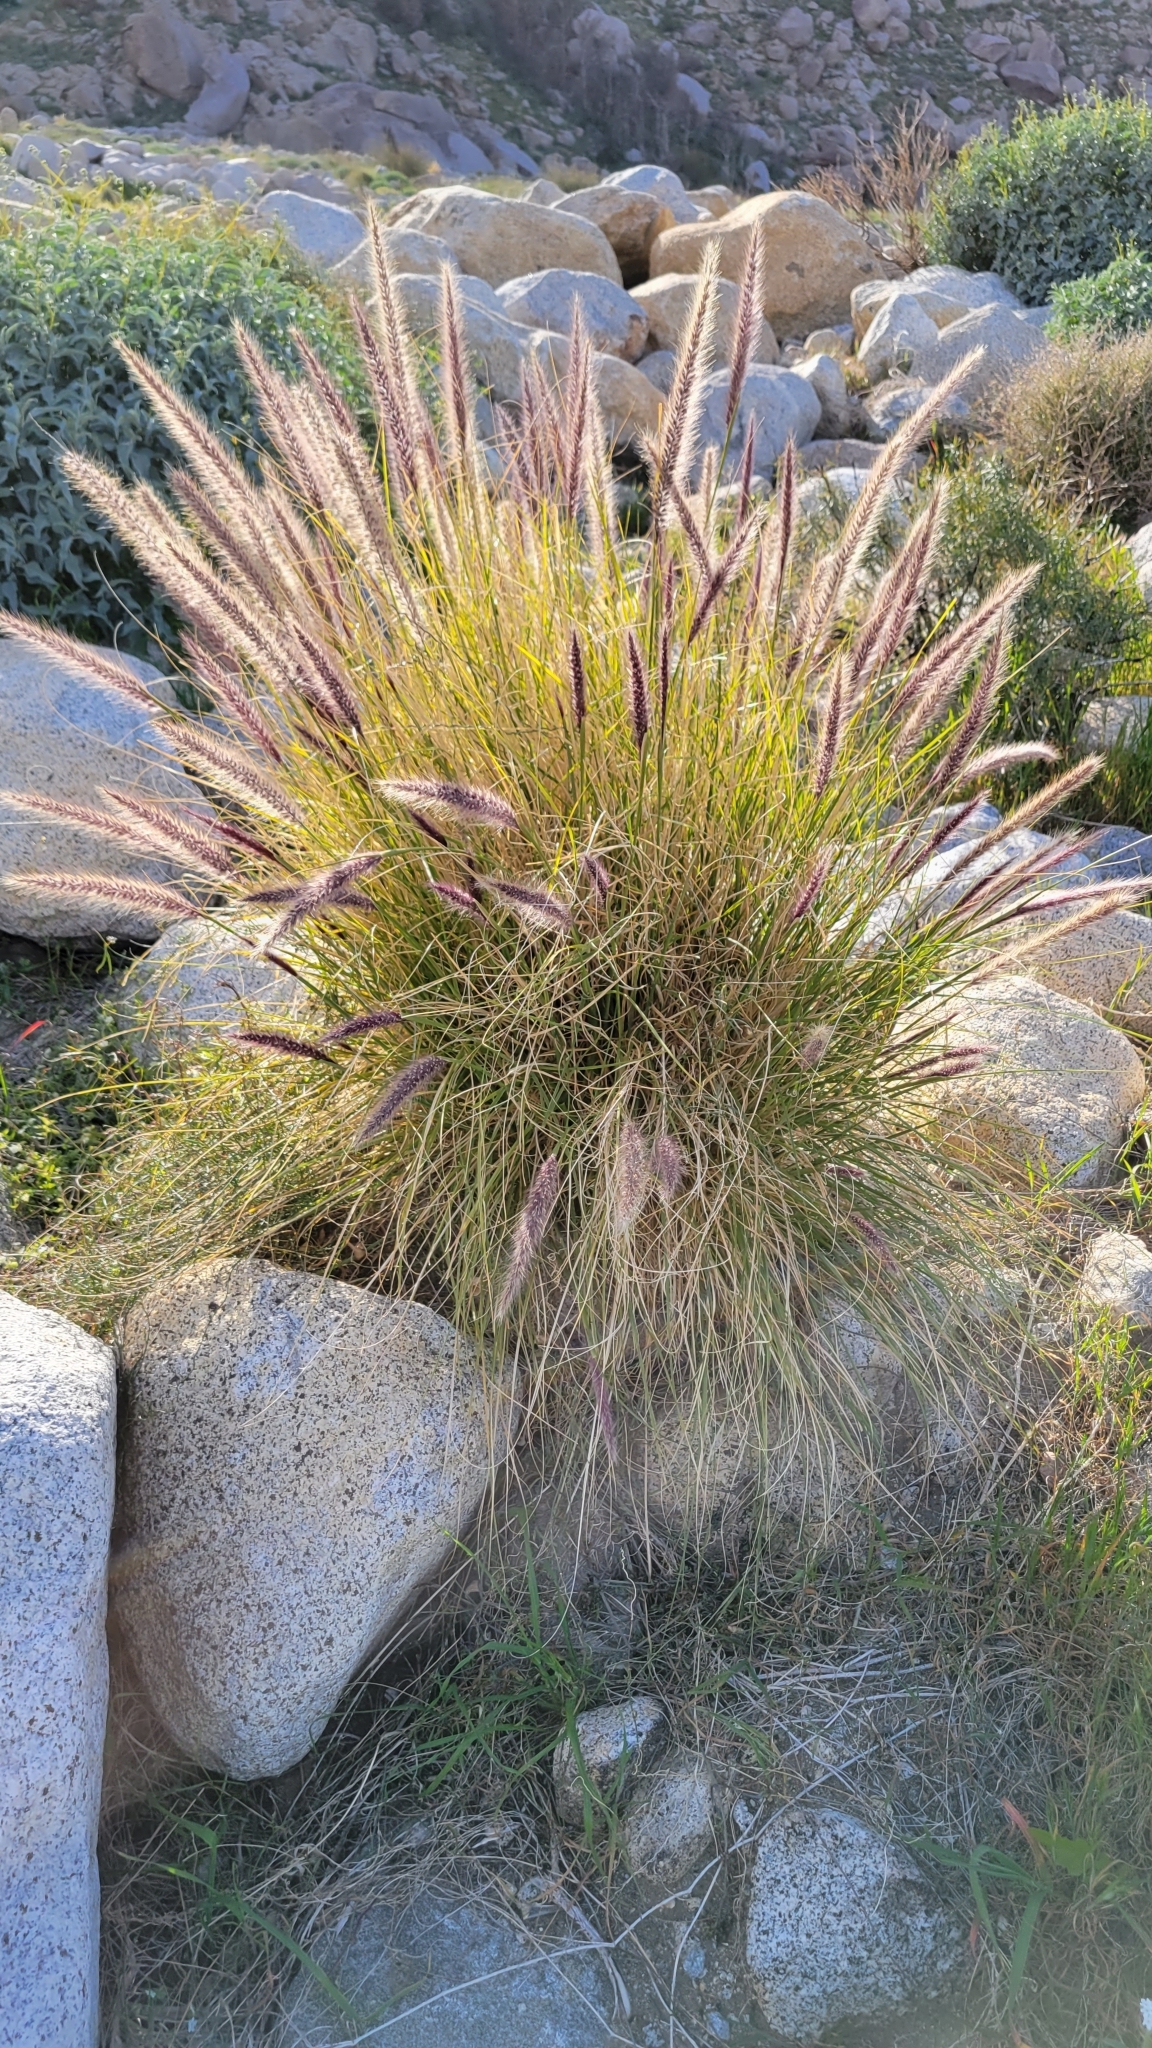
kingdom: Plantae
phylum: Tracheophyta
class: Liliopsida
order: Poales
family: Poaceae
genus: Cenchrus
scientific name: Cenchrus setaceus
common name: Crimson fountaingrass
